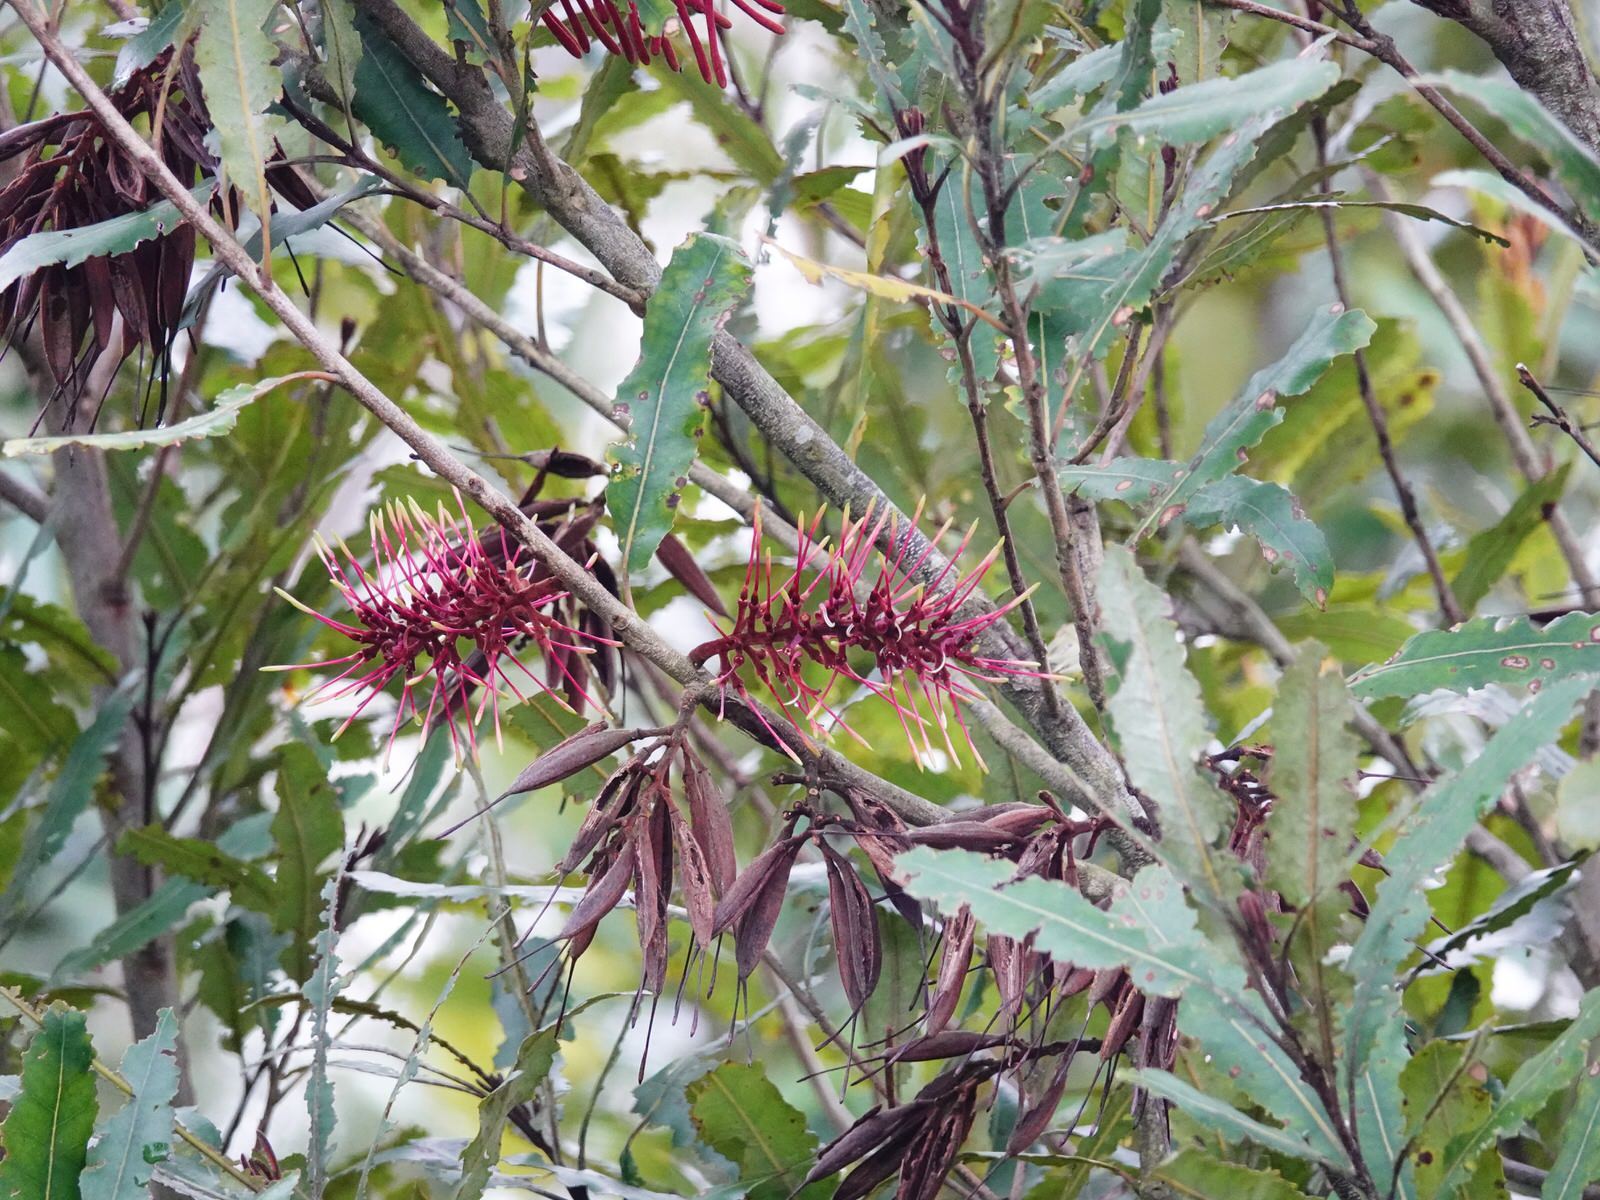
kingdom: Plantae
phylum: Tracheophyta
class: Magnoliopsida
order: Proteales
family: Proteaceae
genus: Knightia
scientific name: Knightia excelsa
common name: New zealand-honeysuckle
